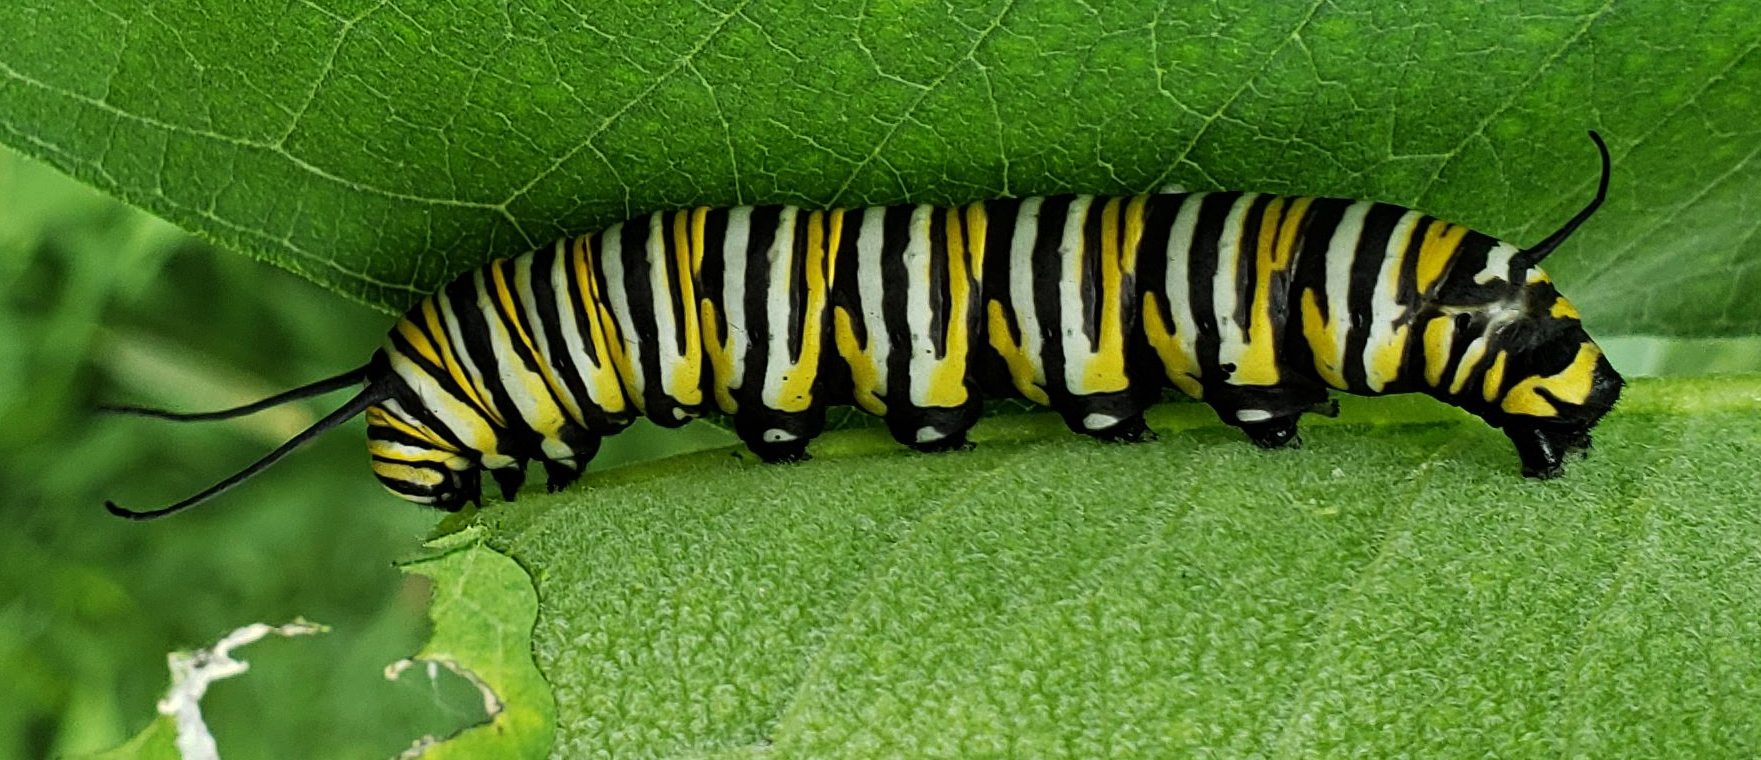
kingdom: Animalia
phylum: Arthropoda
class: Insecta
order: Lepidoptera
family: Nymphalidae
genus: Danaus
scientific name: Danaus plexippus
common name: Monarch
